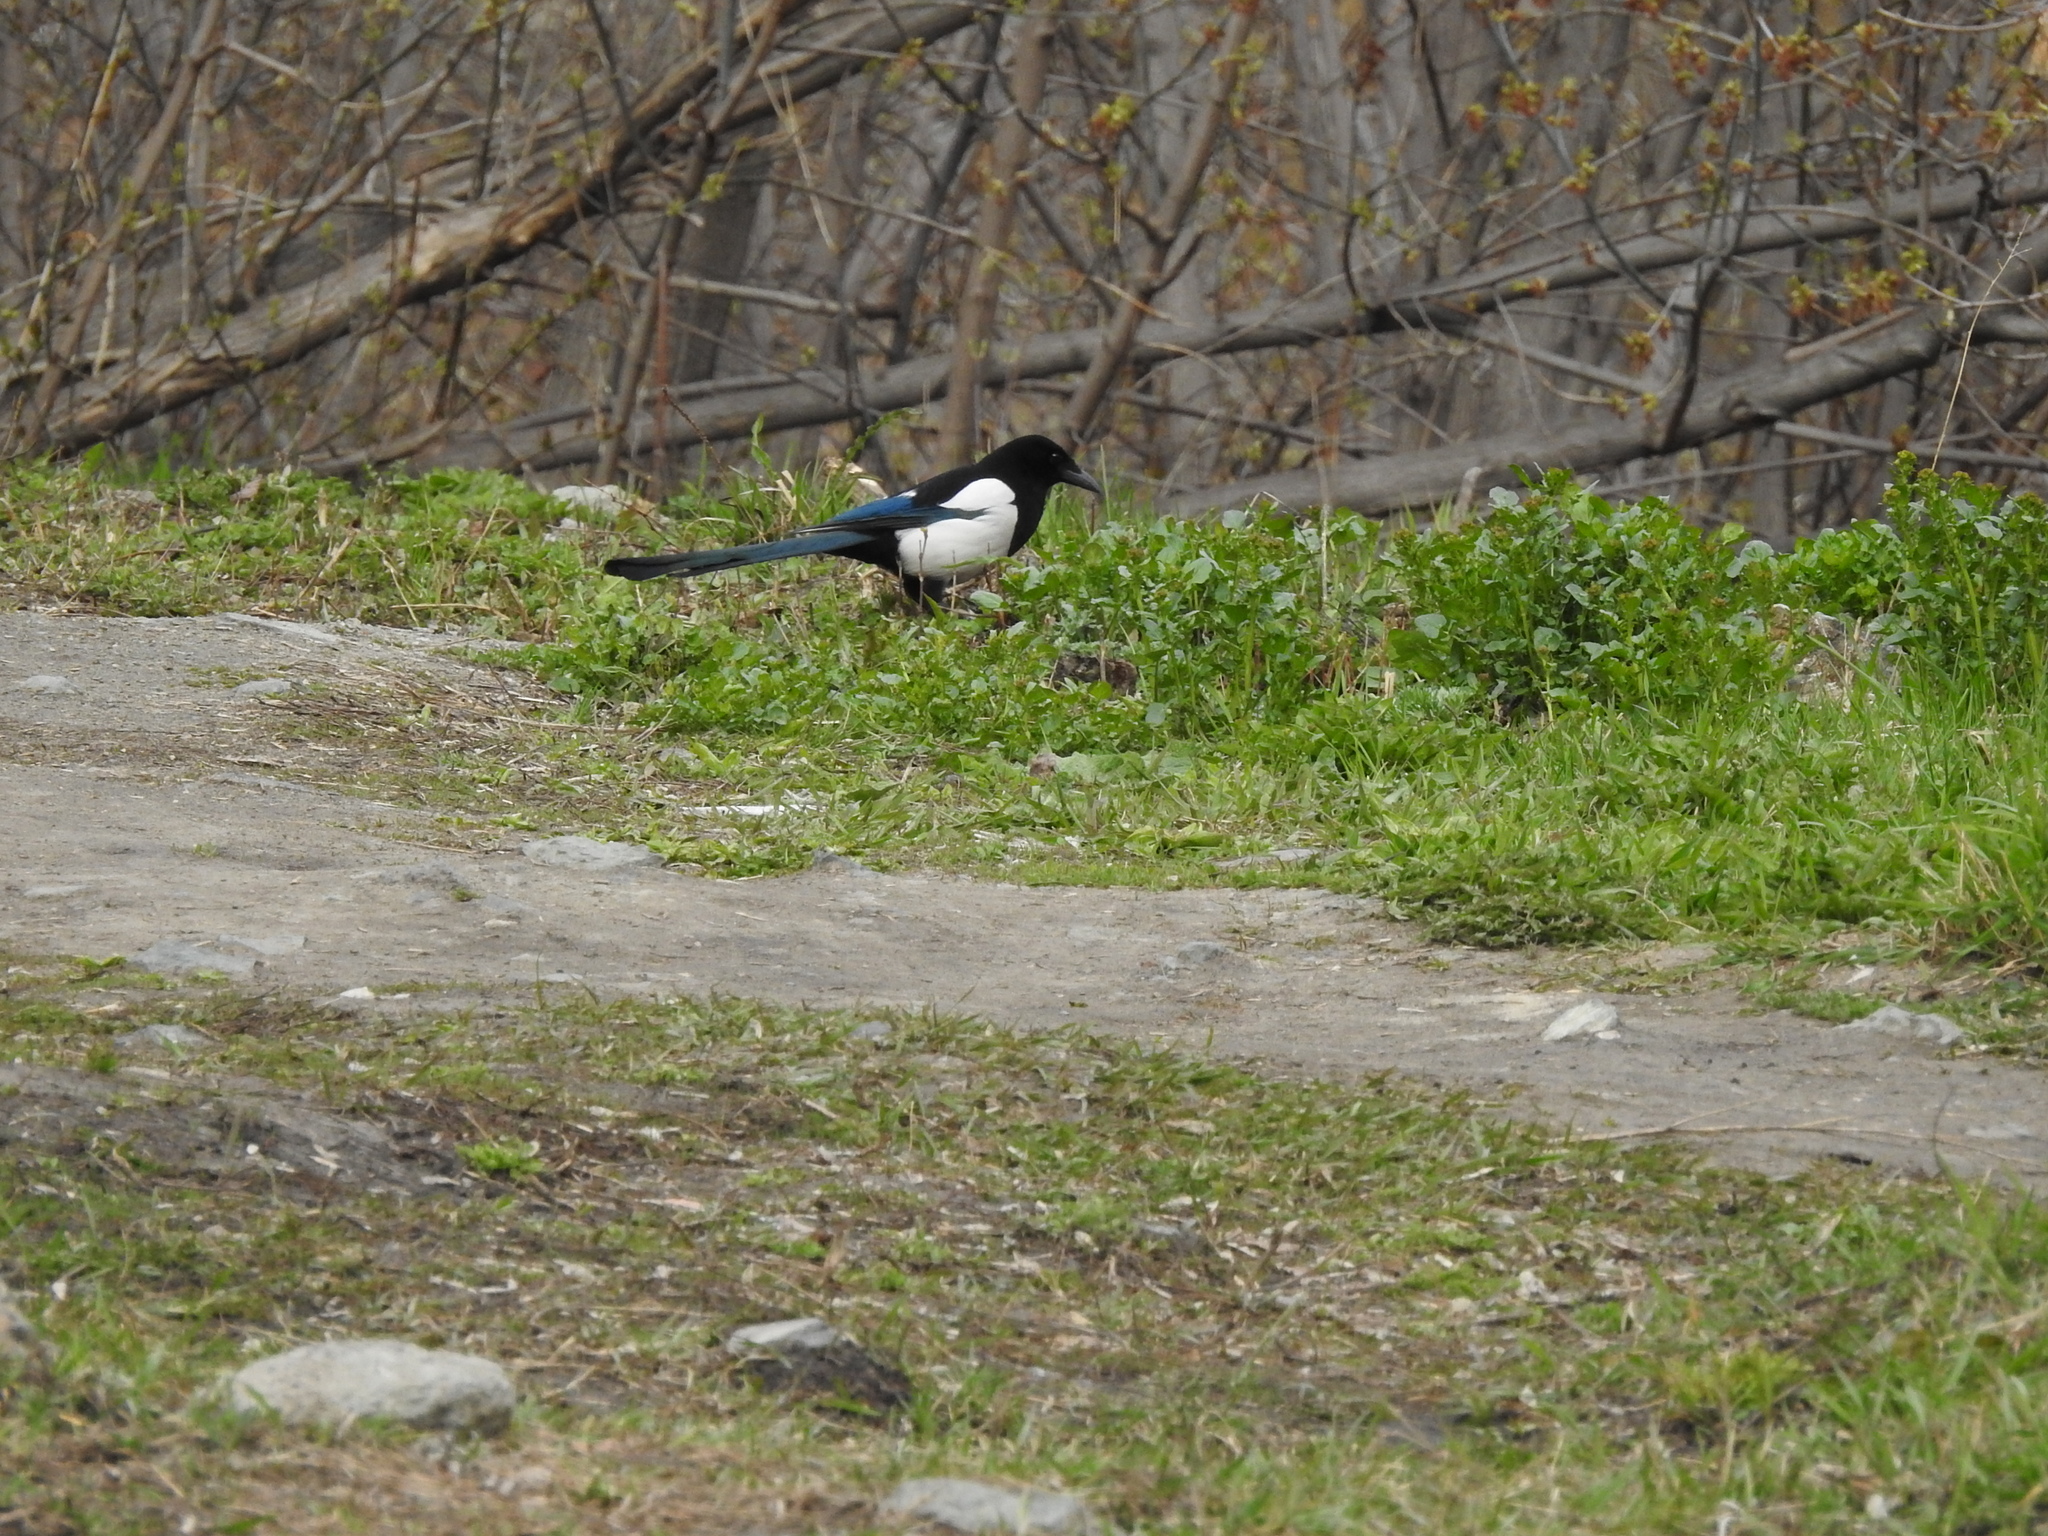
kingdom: Animalia
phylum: Chordata
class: Aves
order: Passeriformes
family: Corvidae
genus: Pica
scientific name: Pica pica
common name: Eurasian magpie
